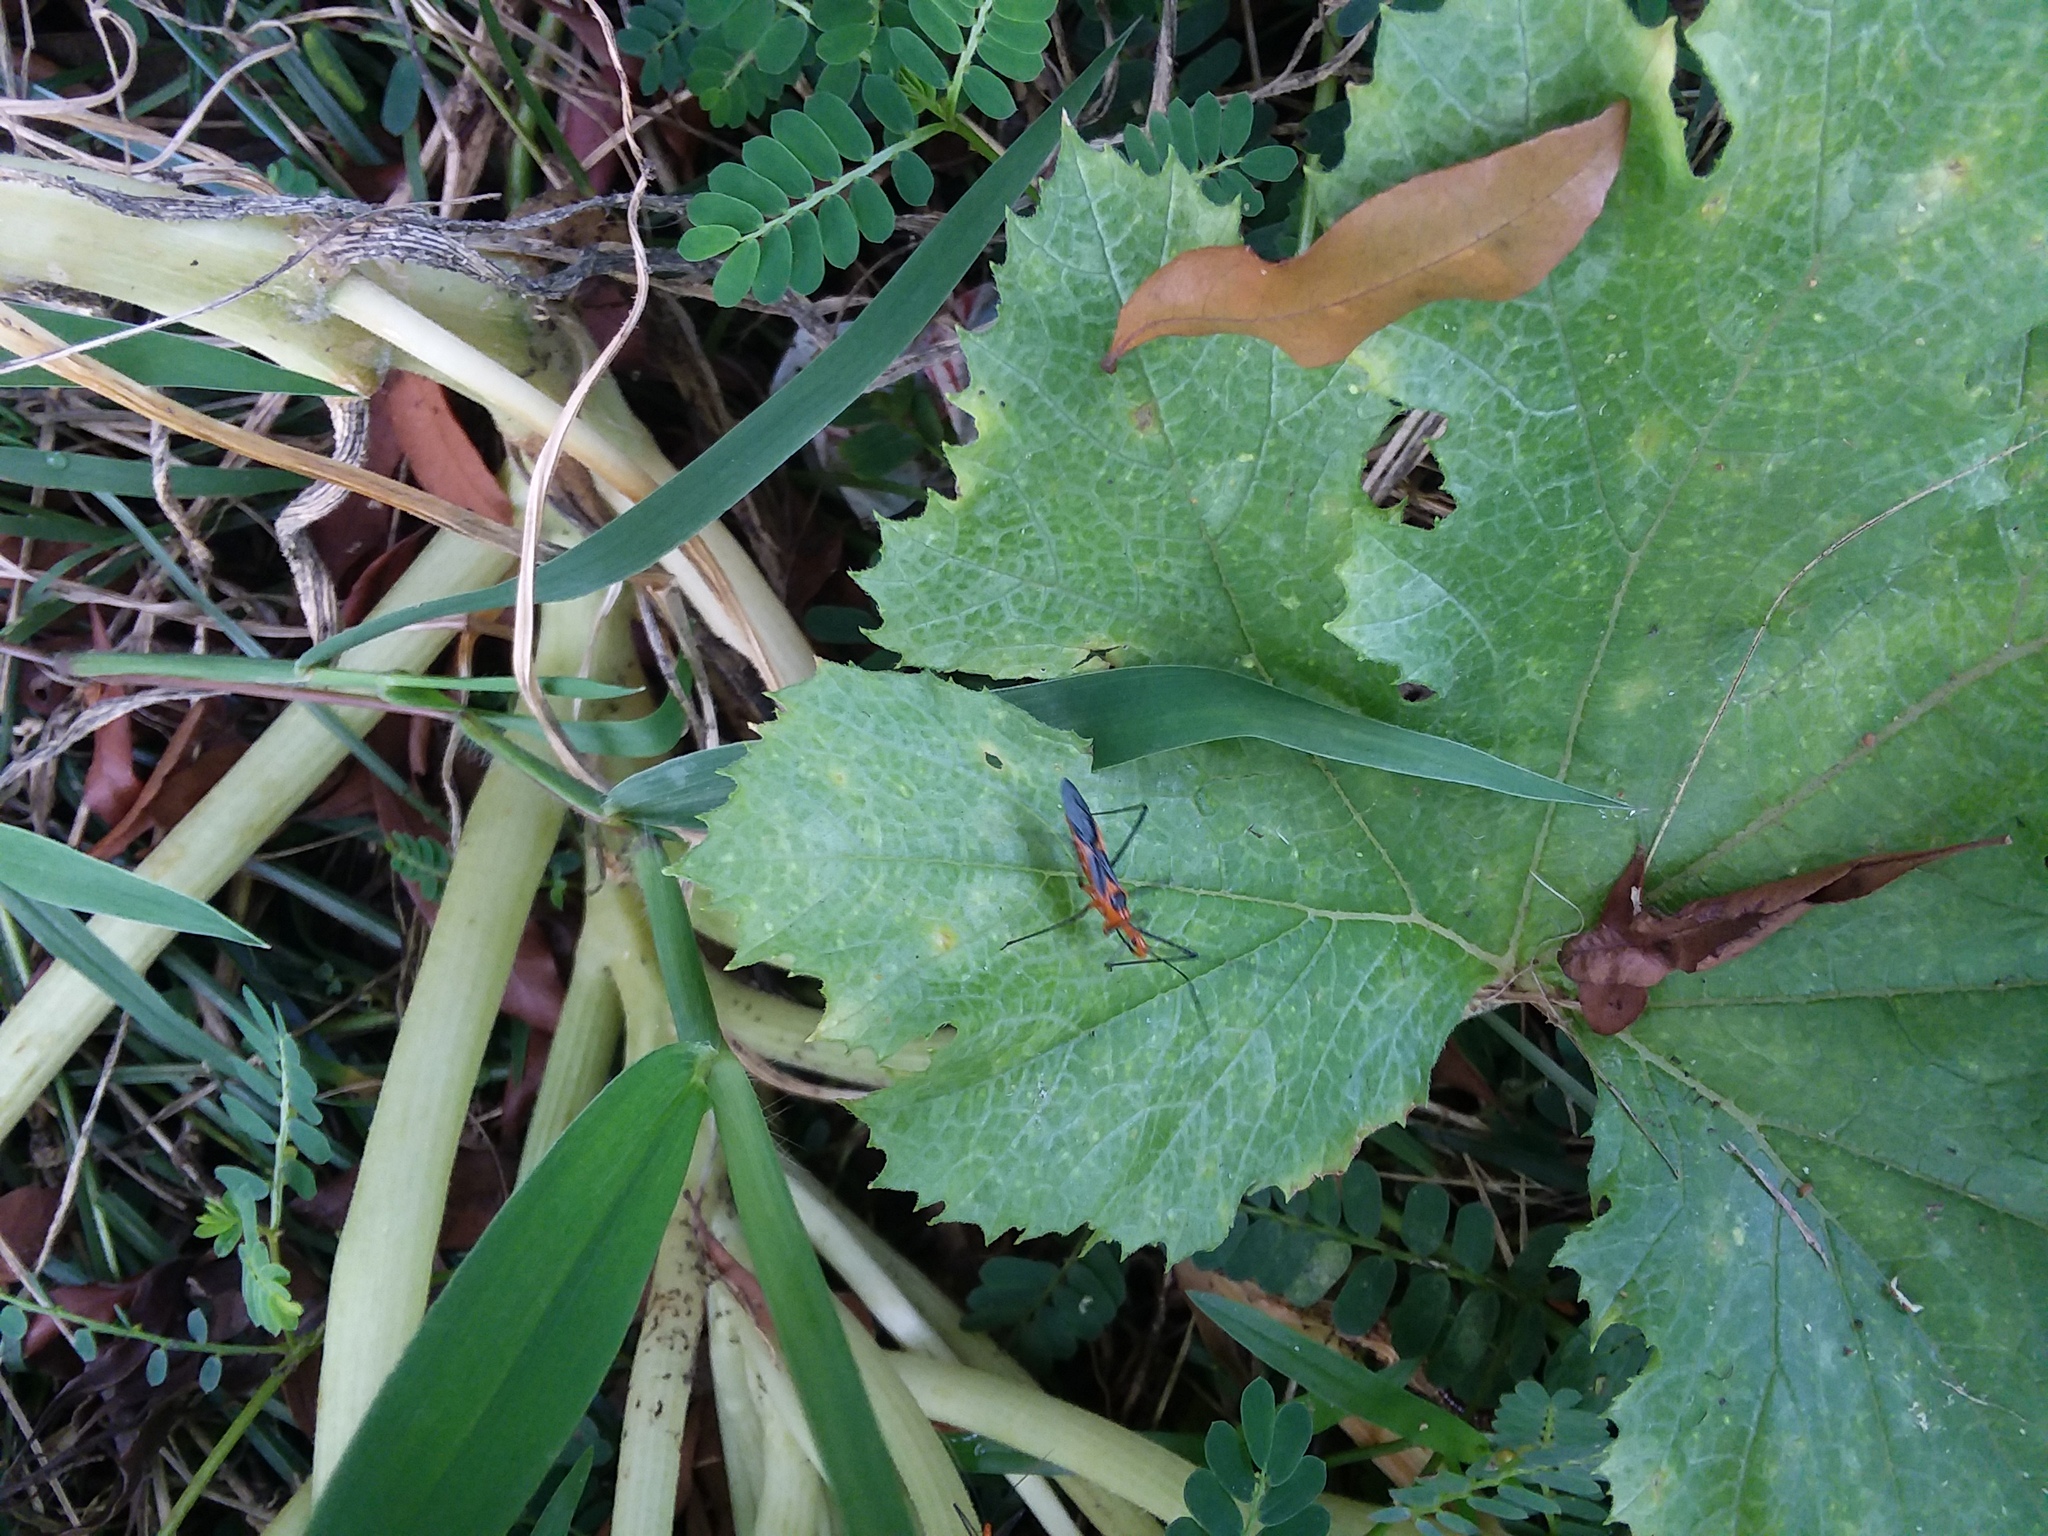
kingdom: Animalia
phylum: Arthropoda
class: Insecta
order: Hemiptera
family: Reduviidae
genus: Zelus
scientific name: Zelus longipes
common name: Milkweed assassin bug
